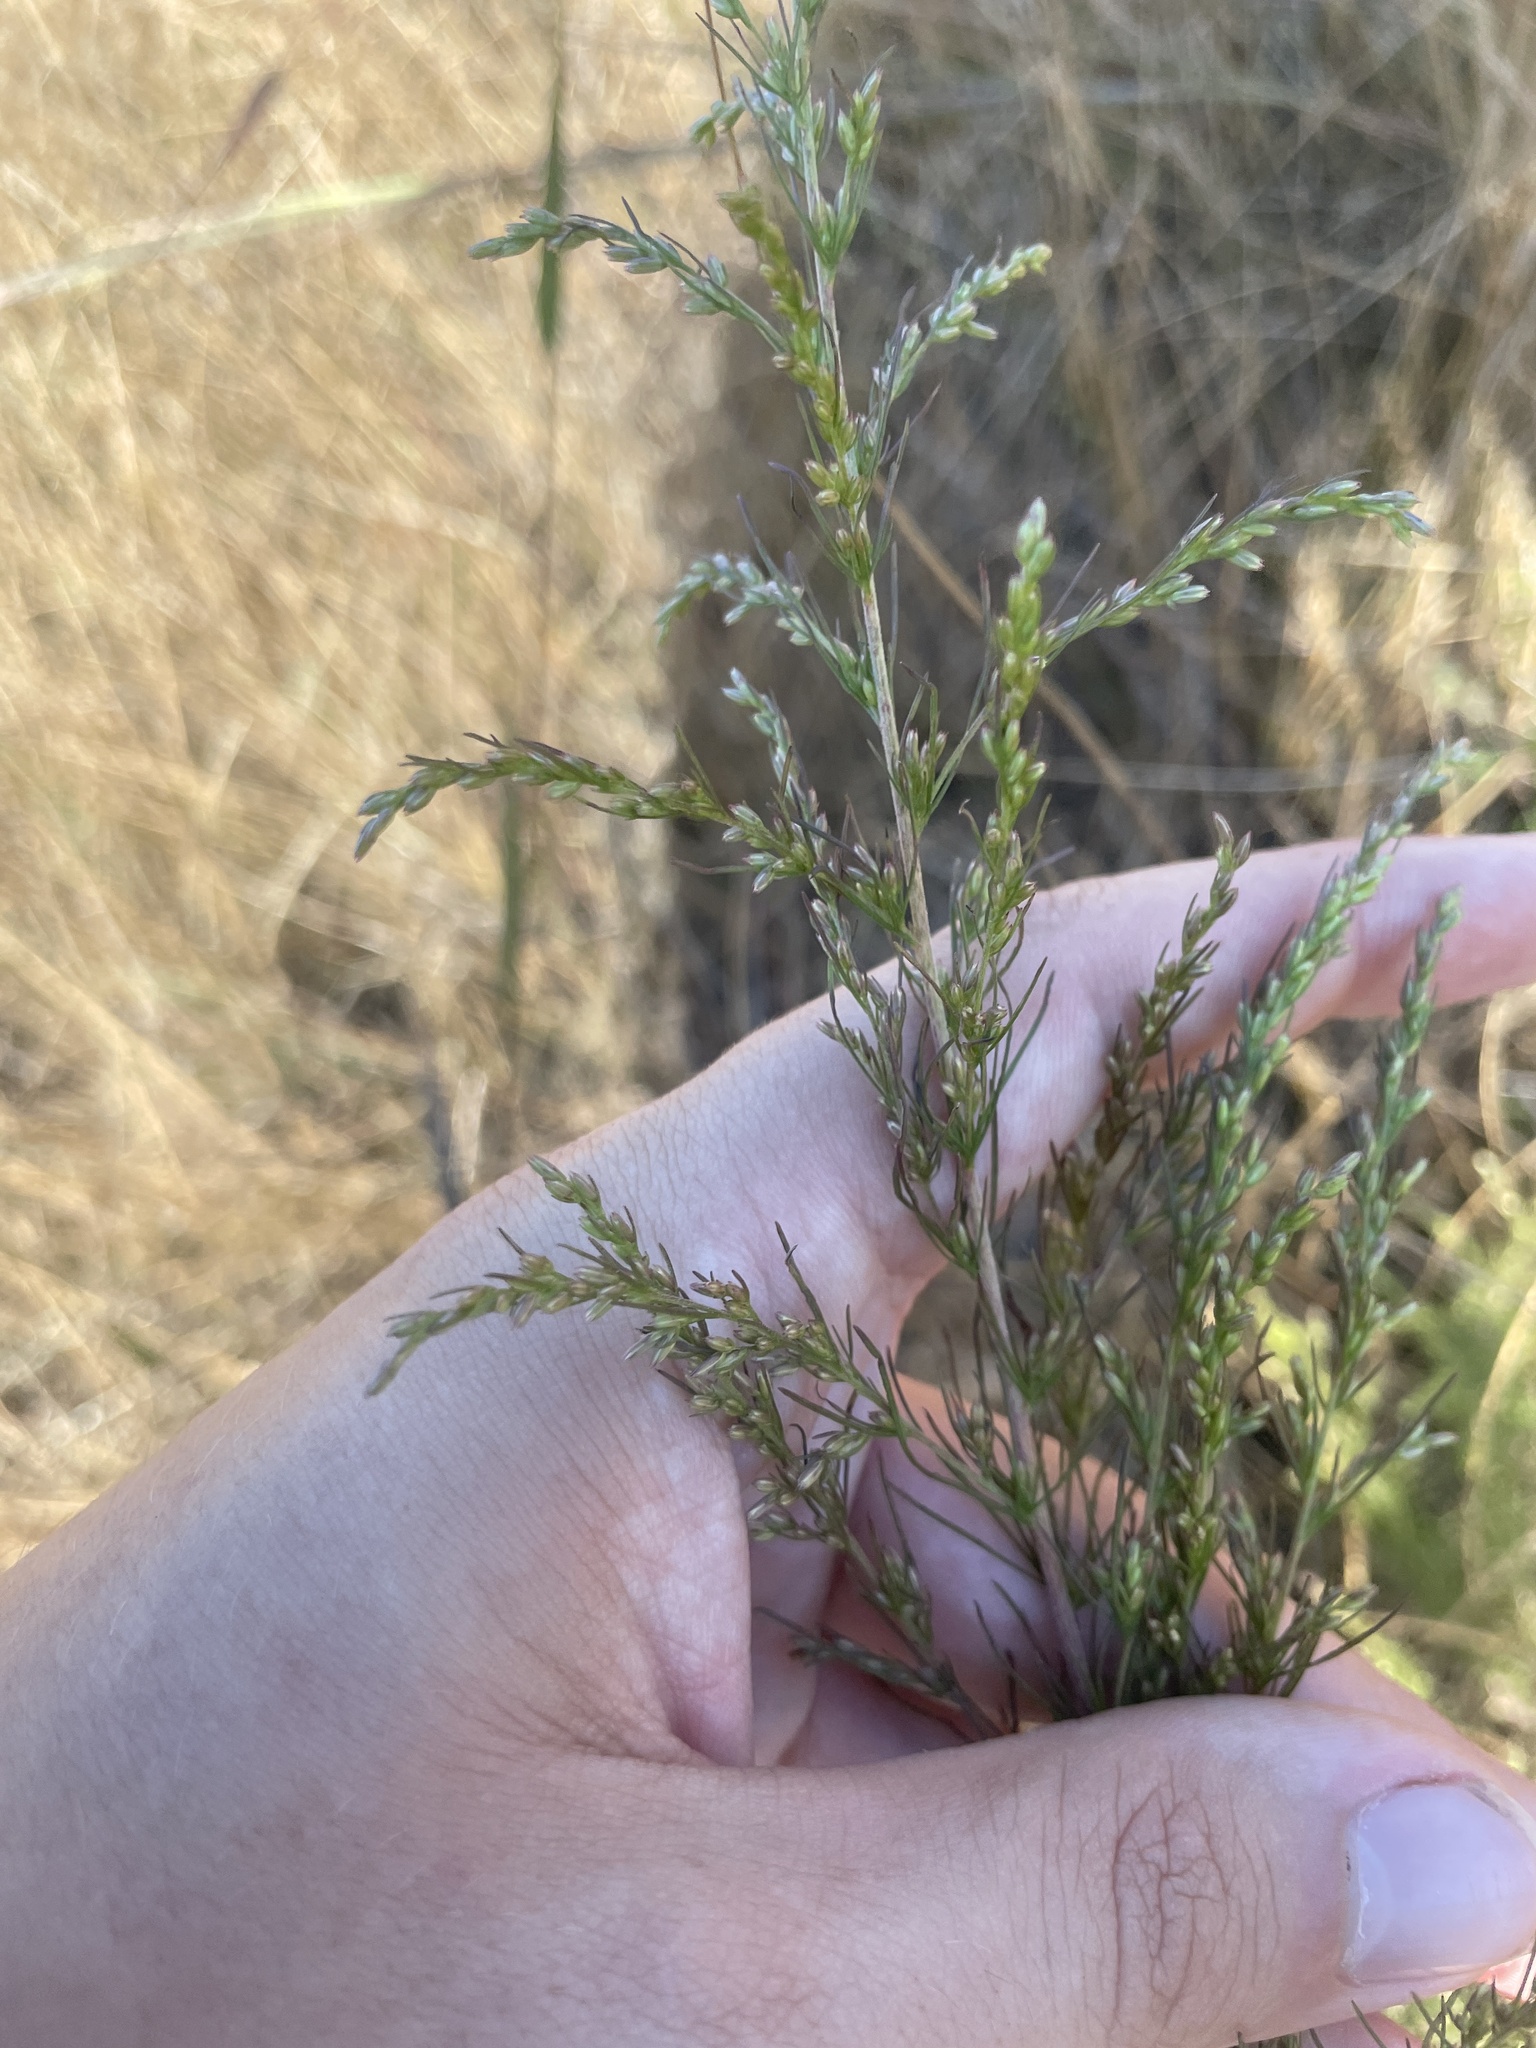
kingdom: Plantae
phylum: Tracheophyta
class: Magnoliopsida
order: Asterales
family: Asteraceae
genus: Eupatorium
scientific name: Eupatorium capillifolium
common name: Dog-fennel
